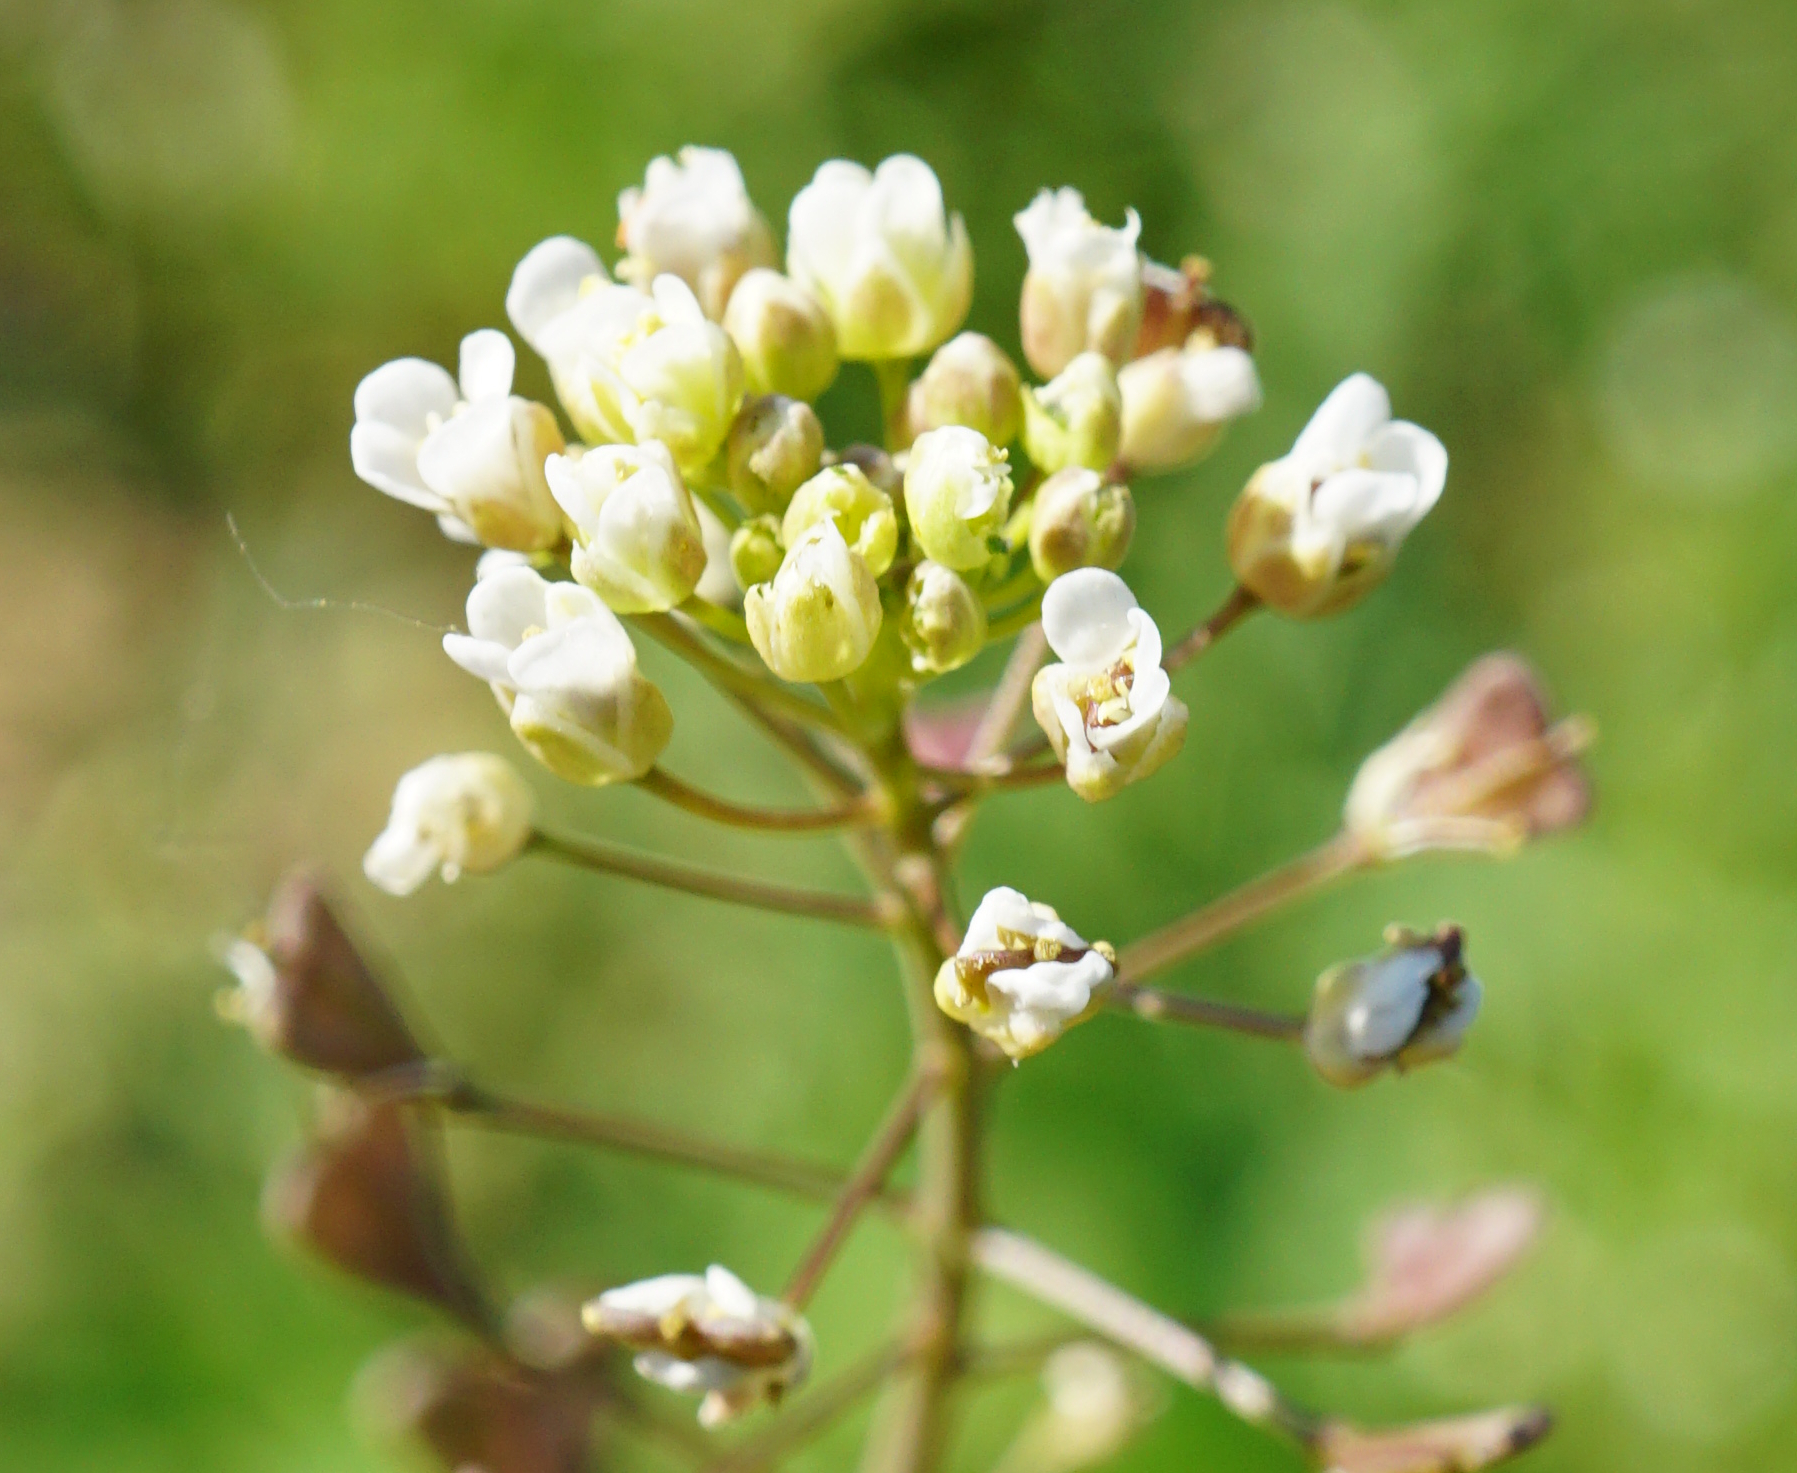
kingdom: Plantae
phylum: Tracheophyta
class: Magnoliopsida
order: Brassicales
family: Brassicaceae
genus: Capsella
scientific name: Capsella bursa-pastoris
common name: Shepherd's purse
